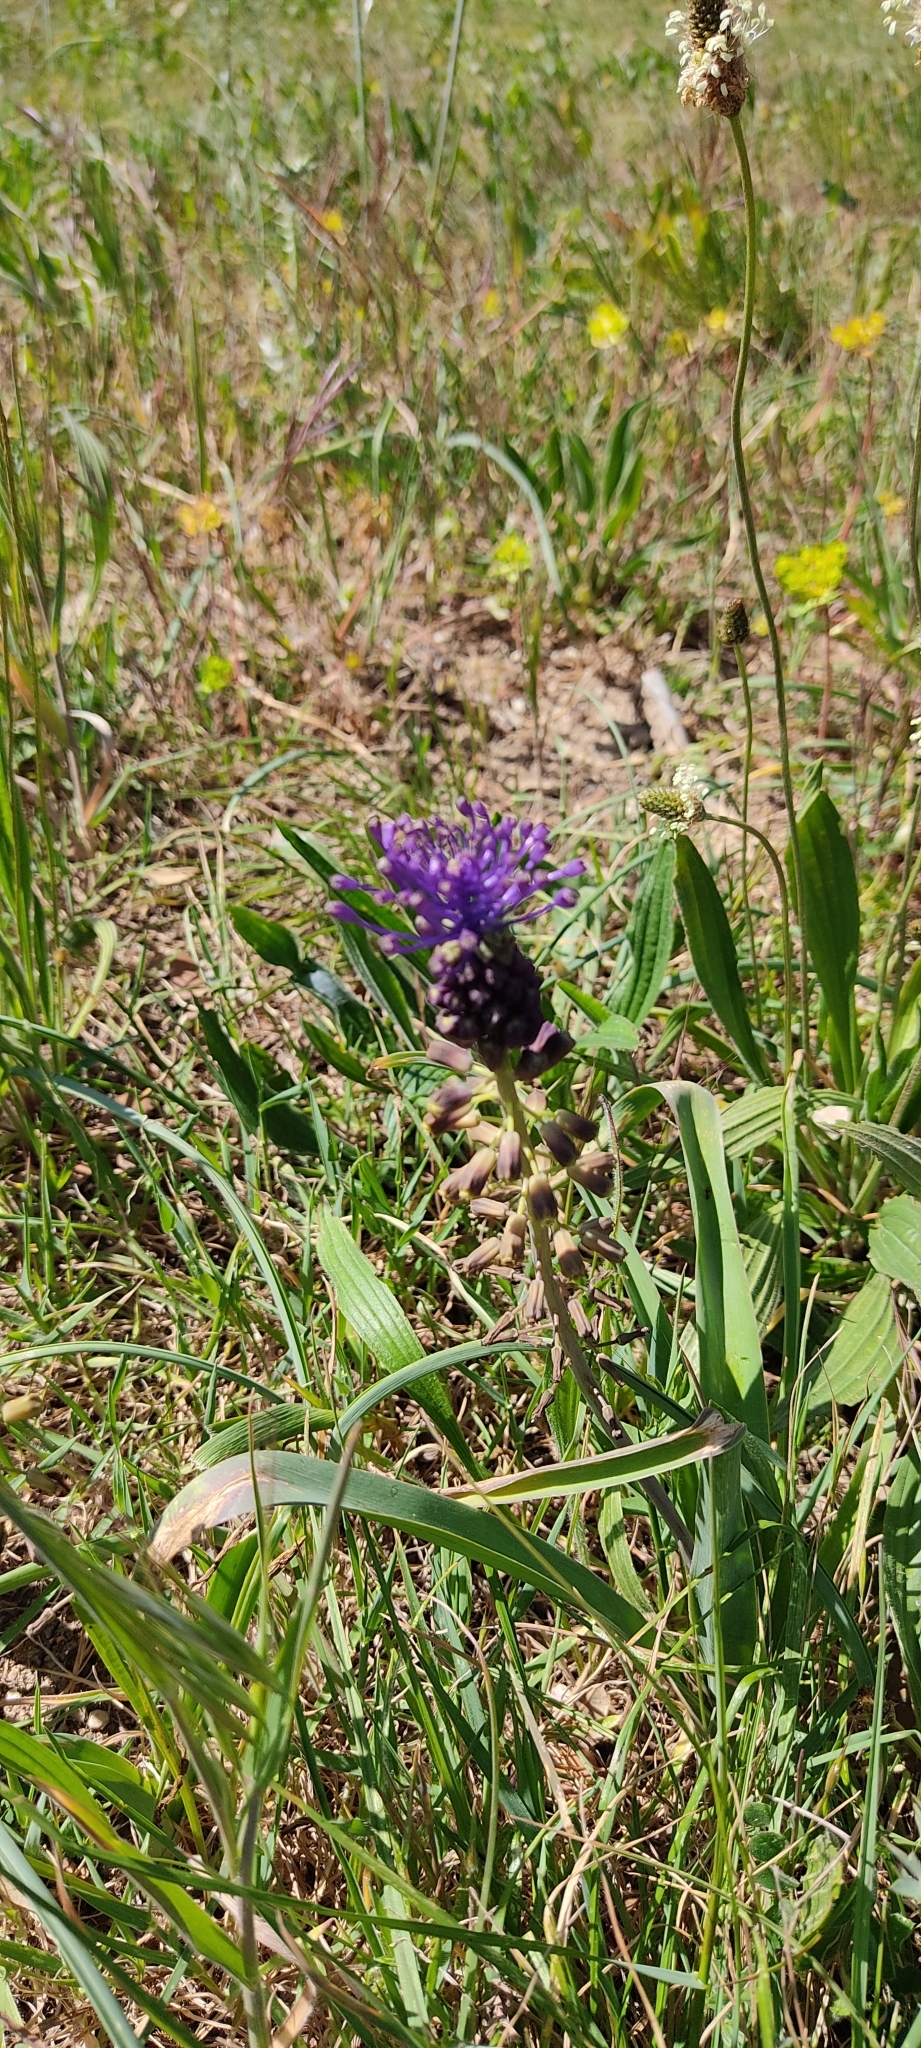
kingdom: Plantae
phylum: Tracheophyta
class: Liliopsida
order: Asparagales
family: Asparagaceae
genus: Muscari
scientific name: Muscari comosum
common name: Tassel hyacinth
